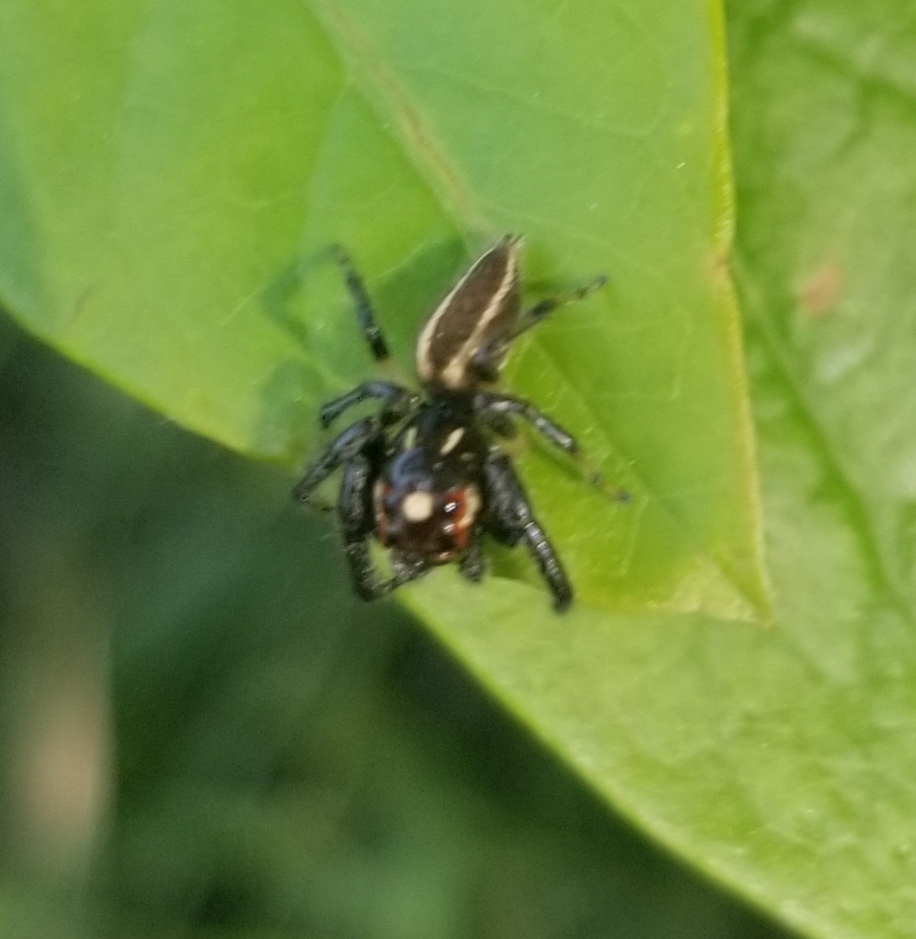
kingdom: Animalia
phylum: Arthropoda
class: Arachnida
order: Araneae
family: Salticidae
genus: Colonus
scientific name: Colonus sylvanus
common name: Jumping spiders
